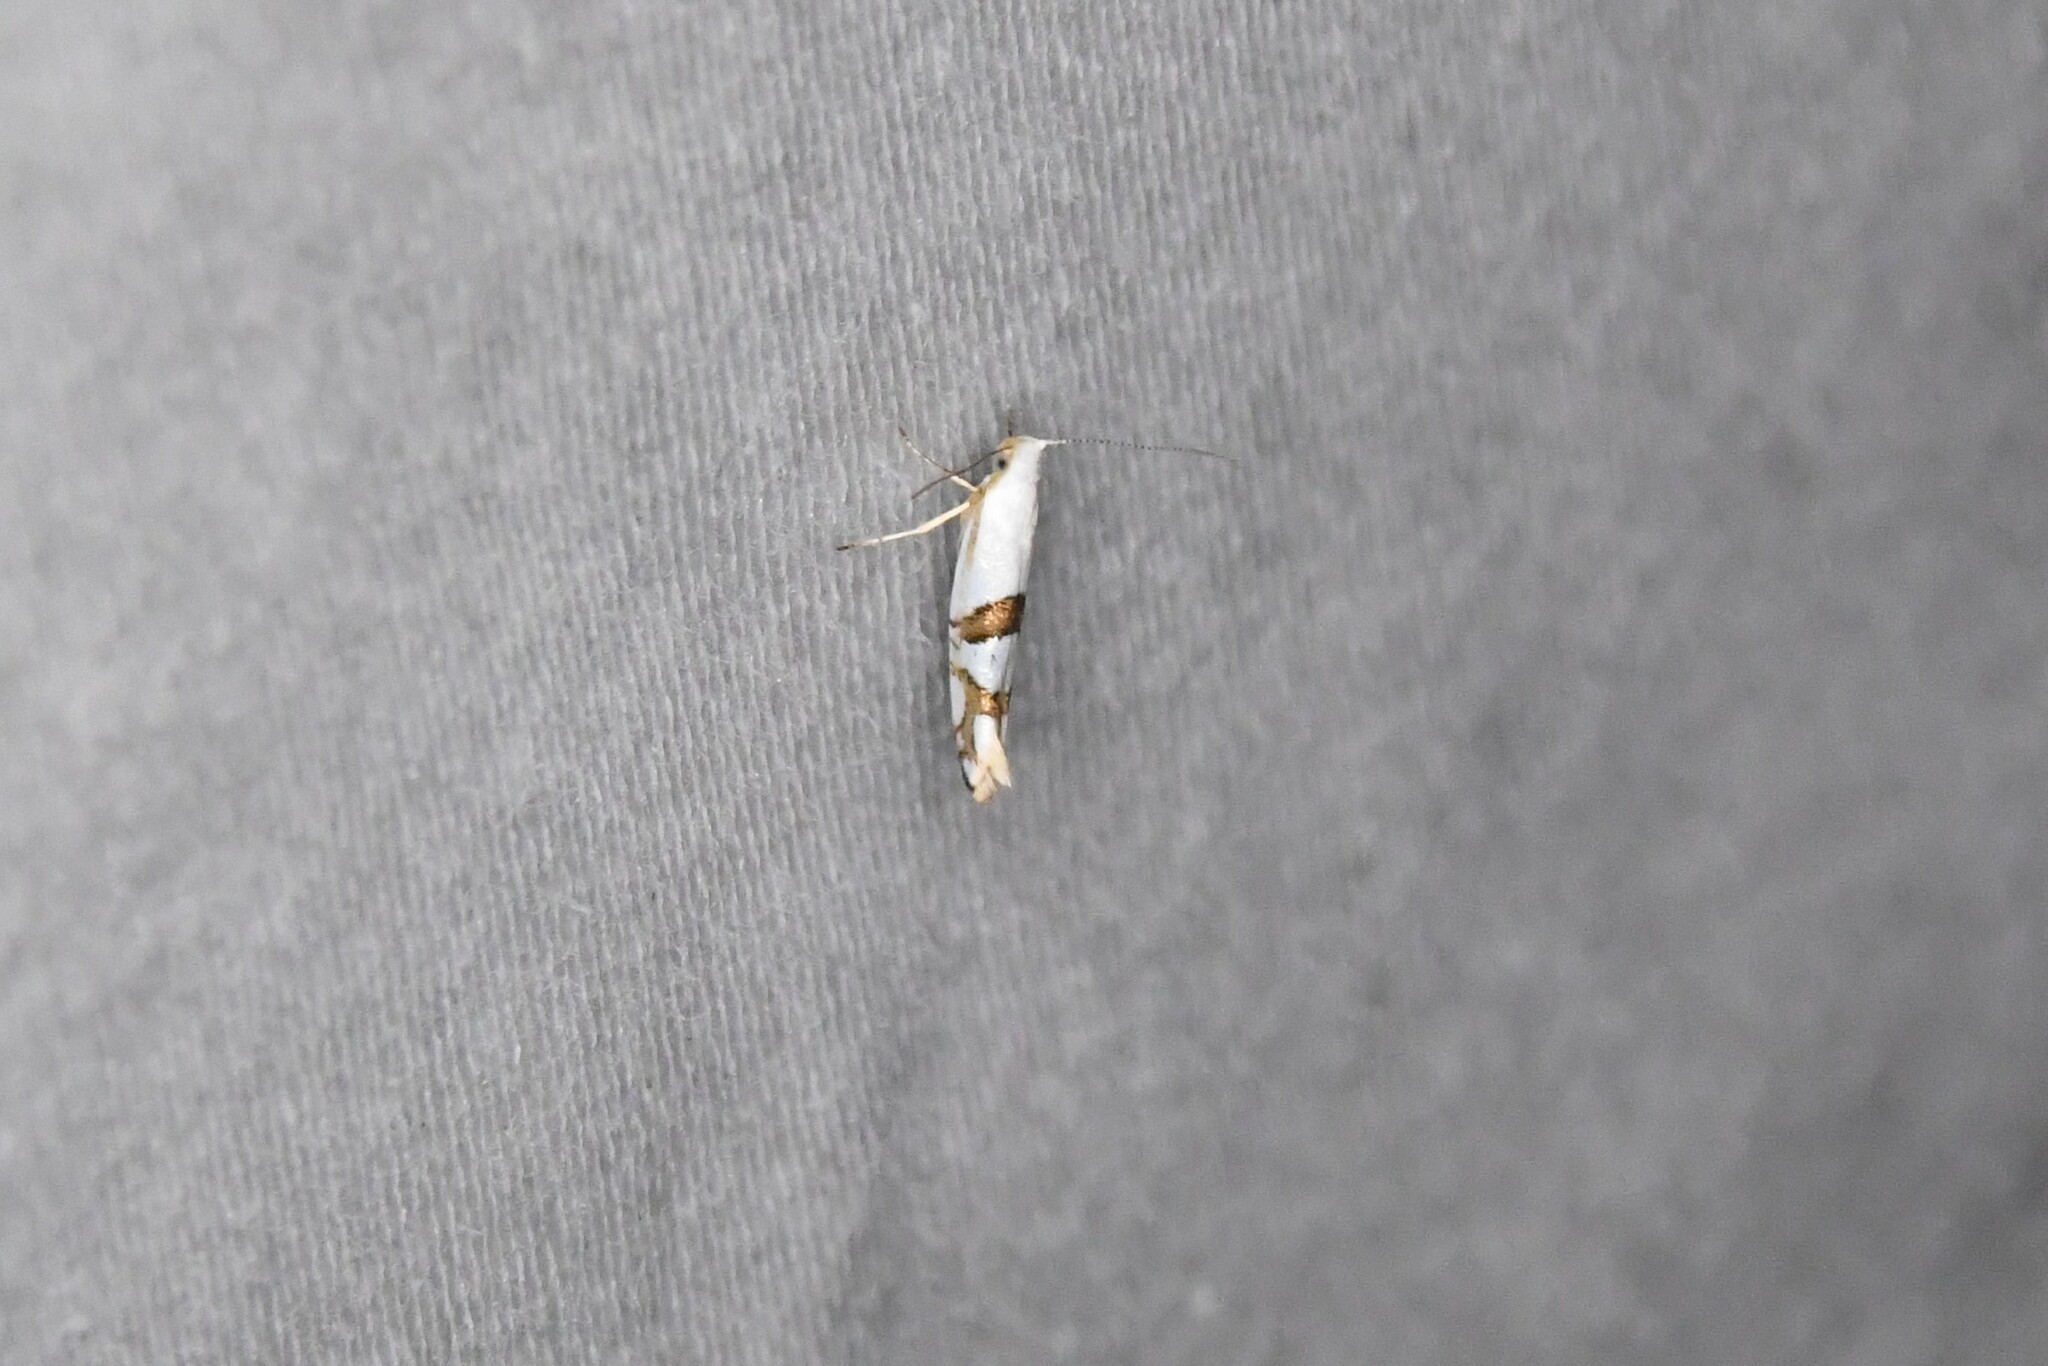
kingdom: Animalia
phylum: Arthropoda
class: Insecta
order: Lepidoptera
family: Argyresthiidae
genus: Argyresthia
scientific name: Argyresthia oreasella
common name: Cherry shoot borer moth
